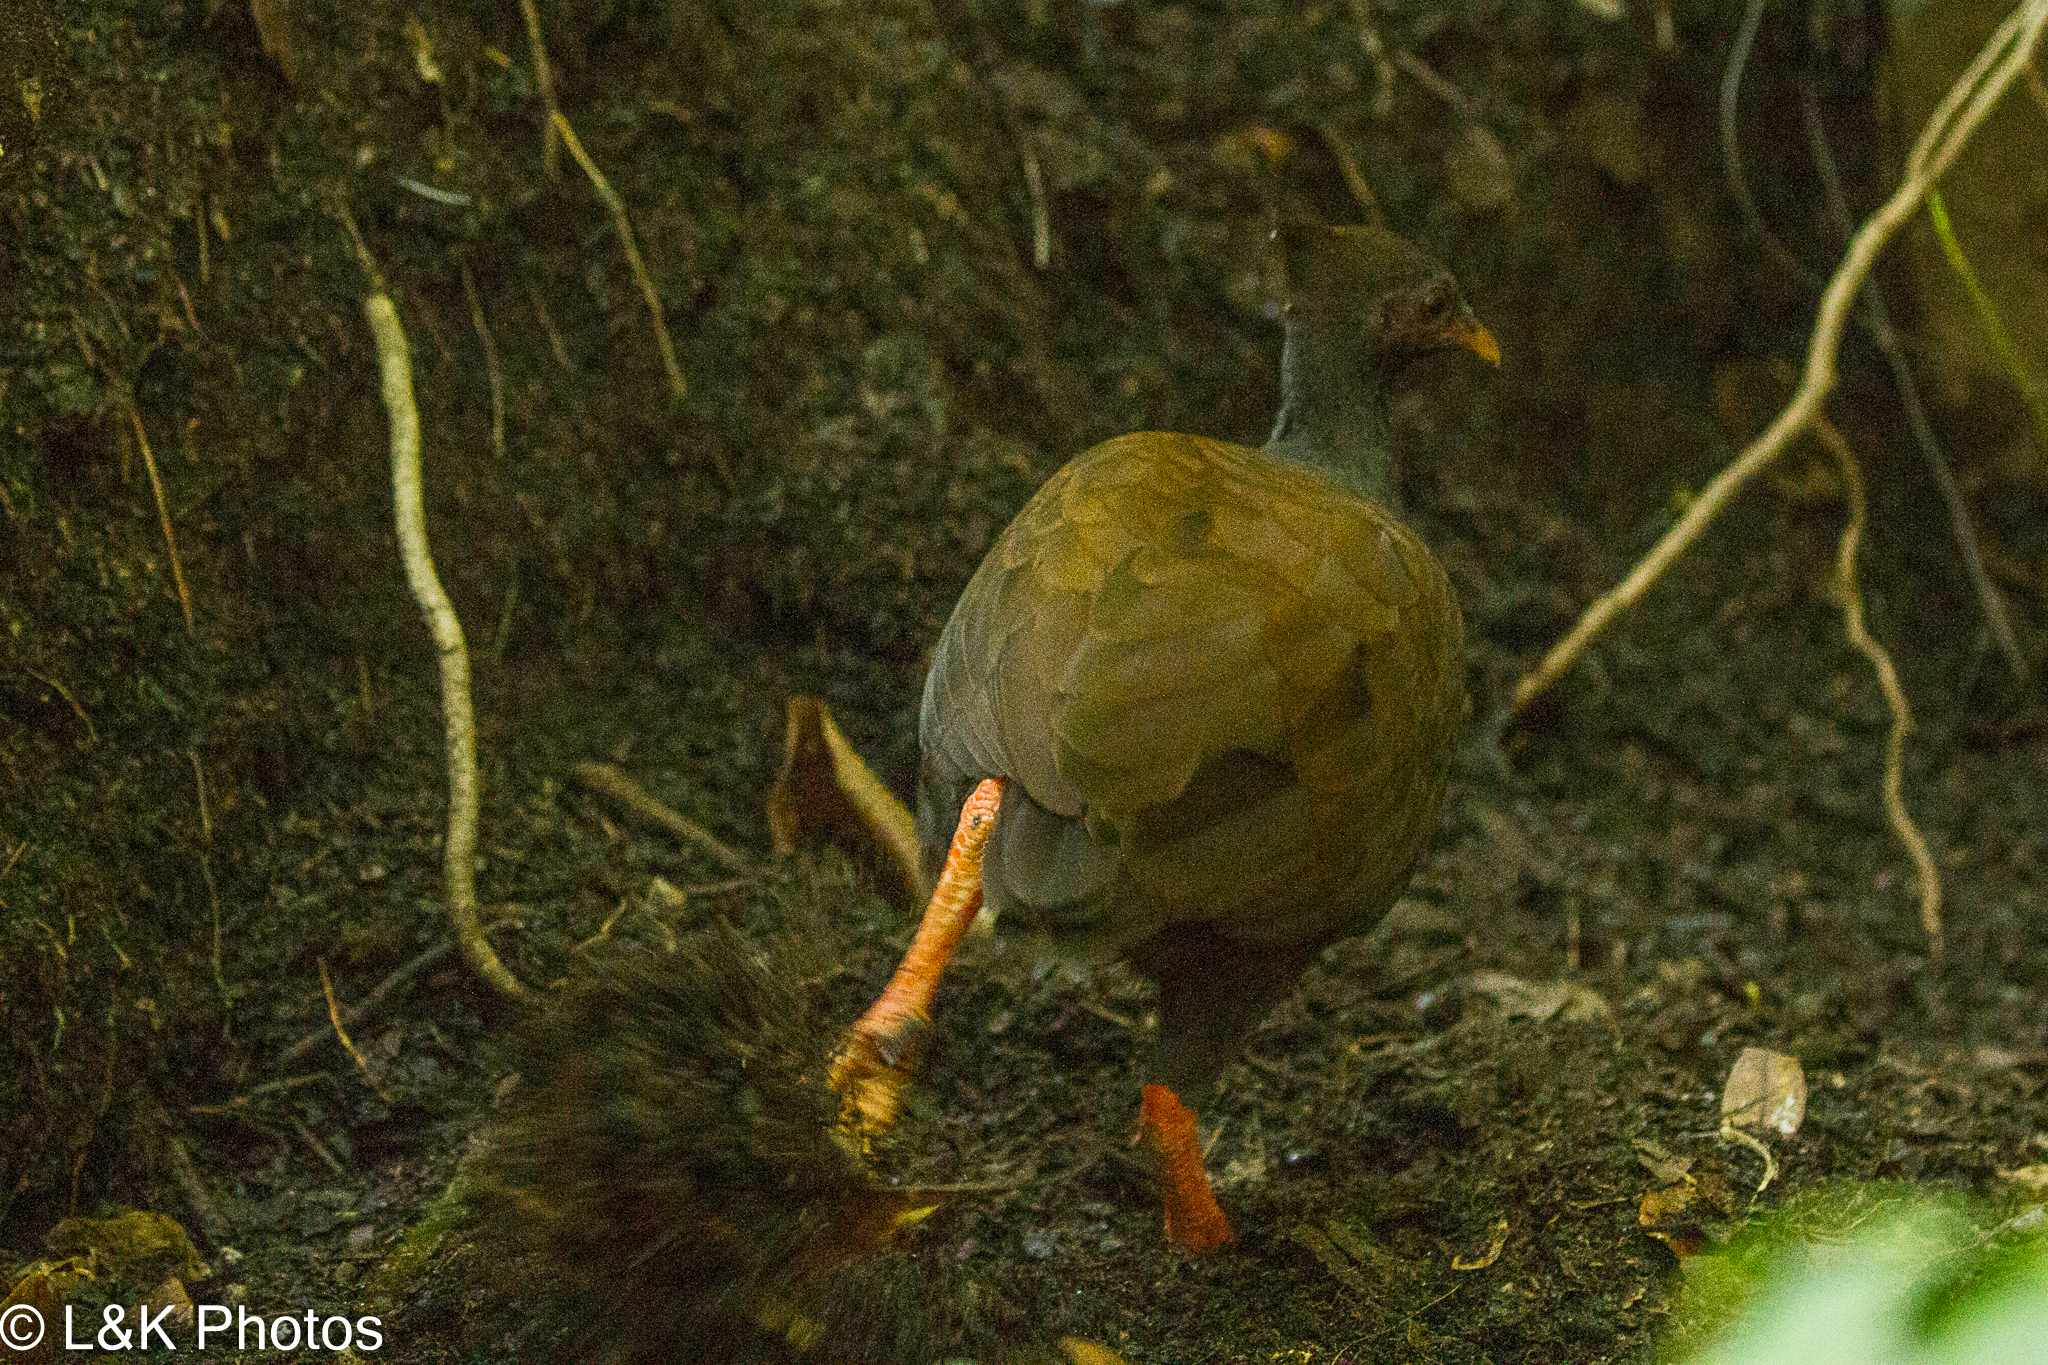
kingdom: Animalia
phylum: Chordata
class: Aves
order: Galliformes
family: Megapodiidae
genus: Megapodius
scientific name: Megapodius reinwardt
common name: Orange-footed scrubfowl
